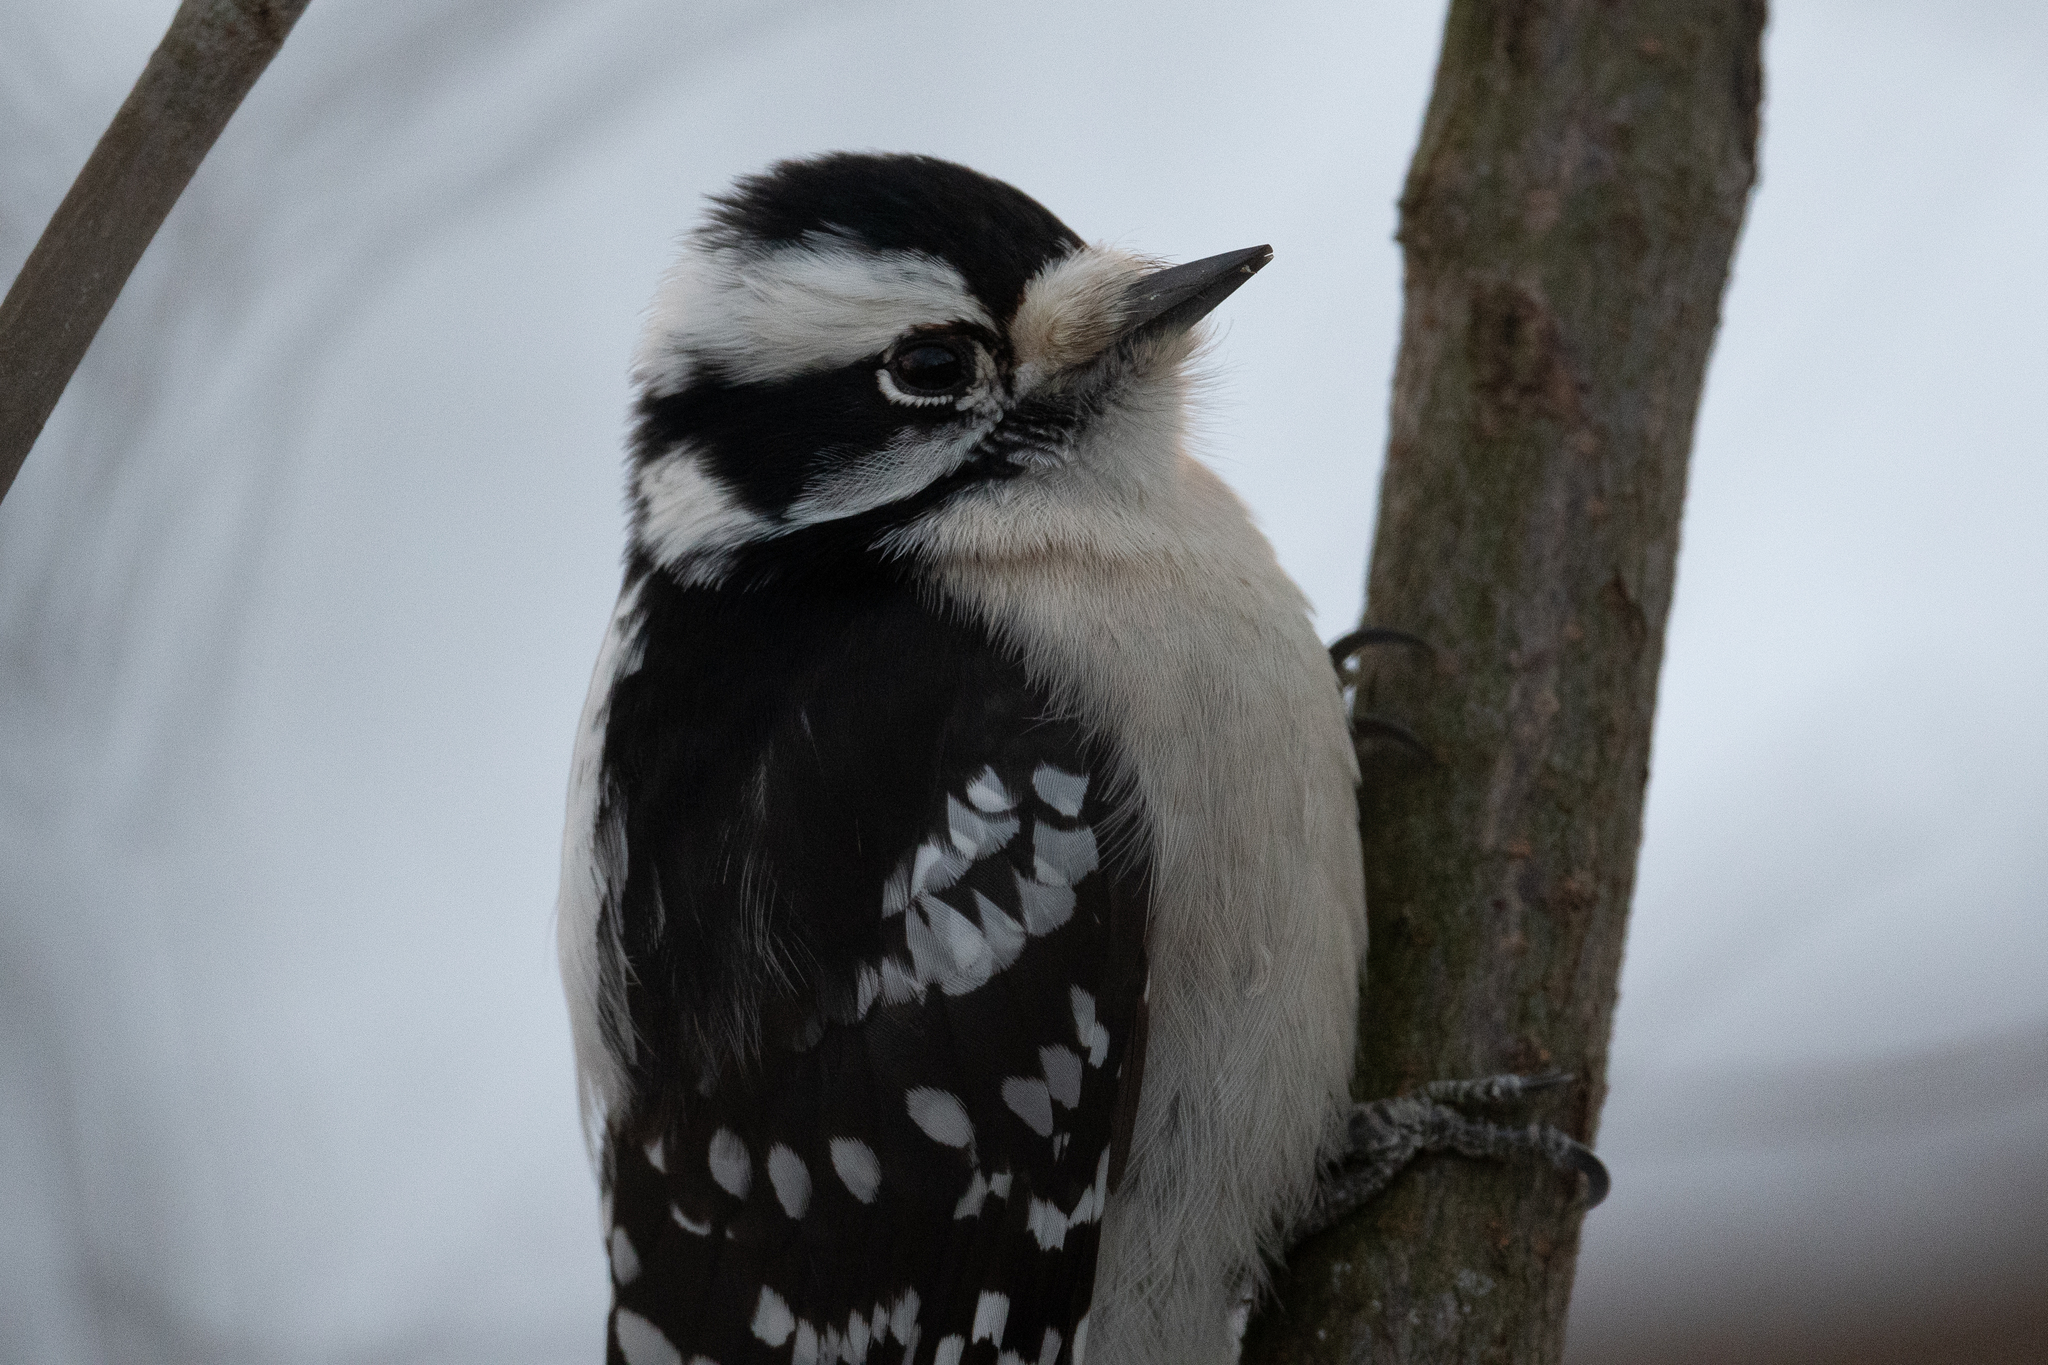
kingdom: Animalia
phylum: Chordata
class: Aves
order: Piciformes
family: Picidae
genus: Dryobates
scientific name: Dryobates pubescens
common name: Downy woodpecker
